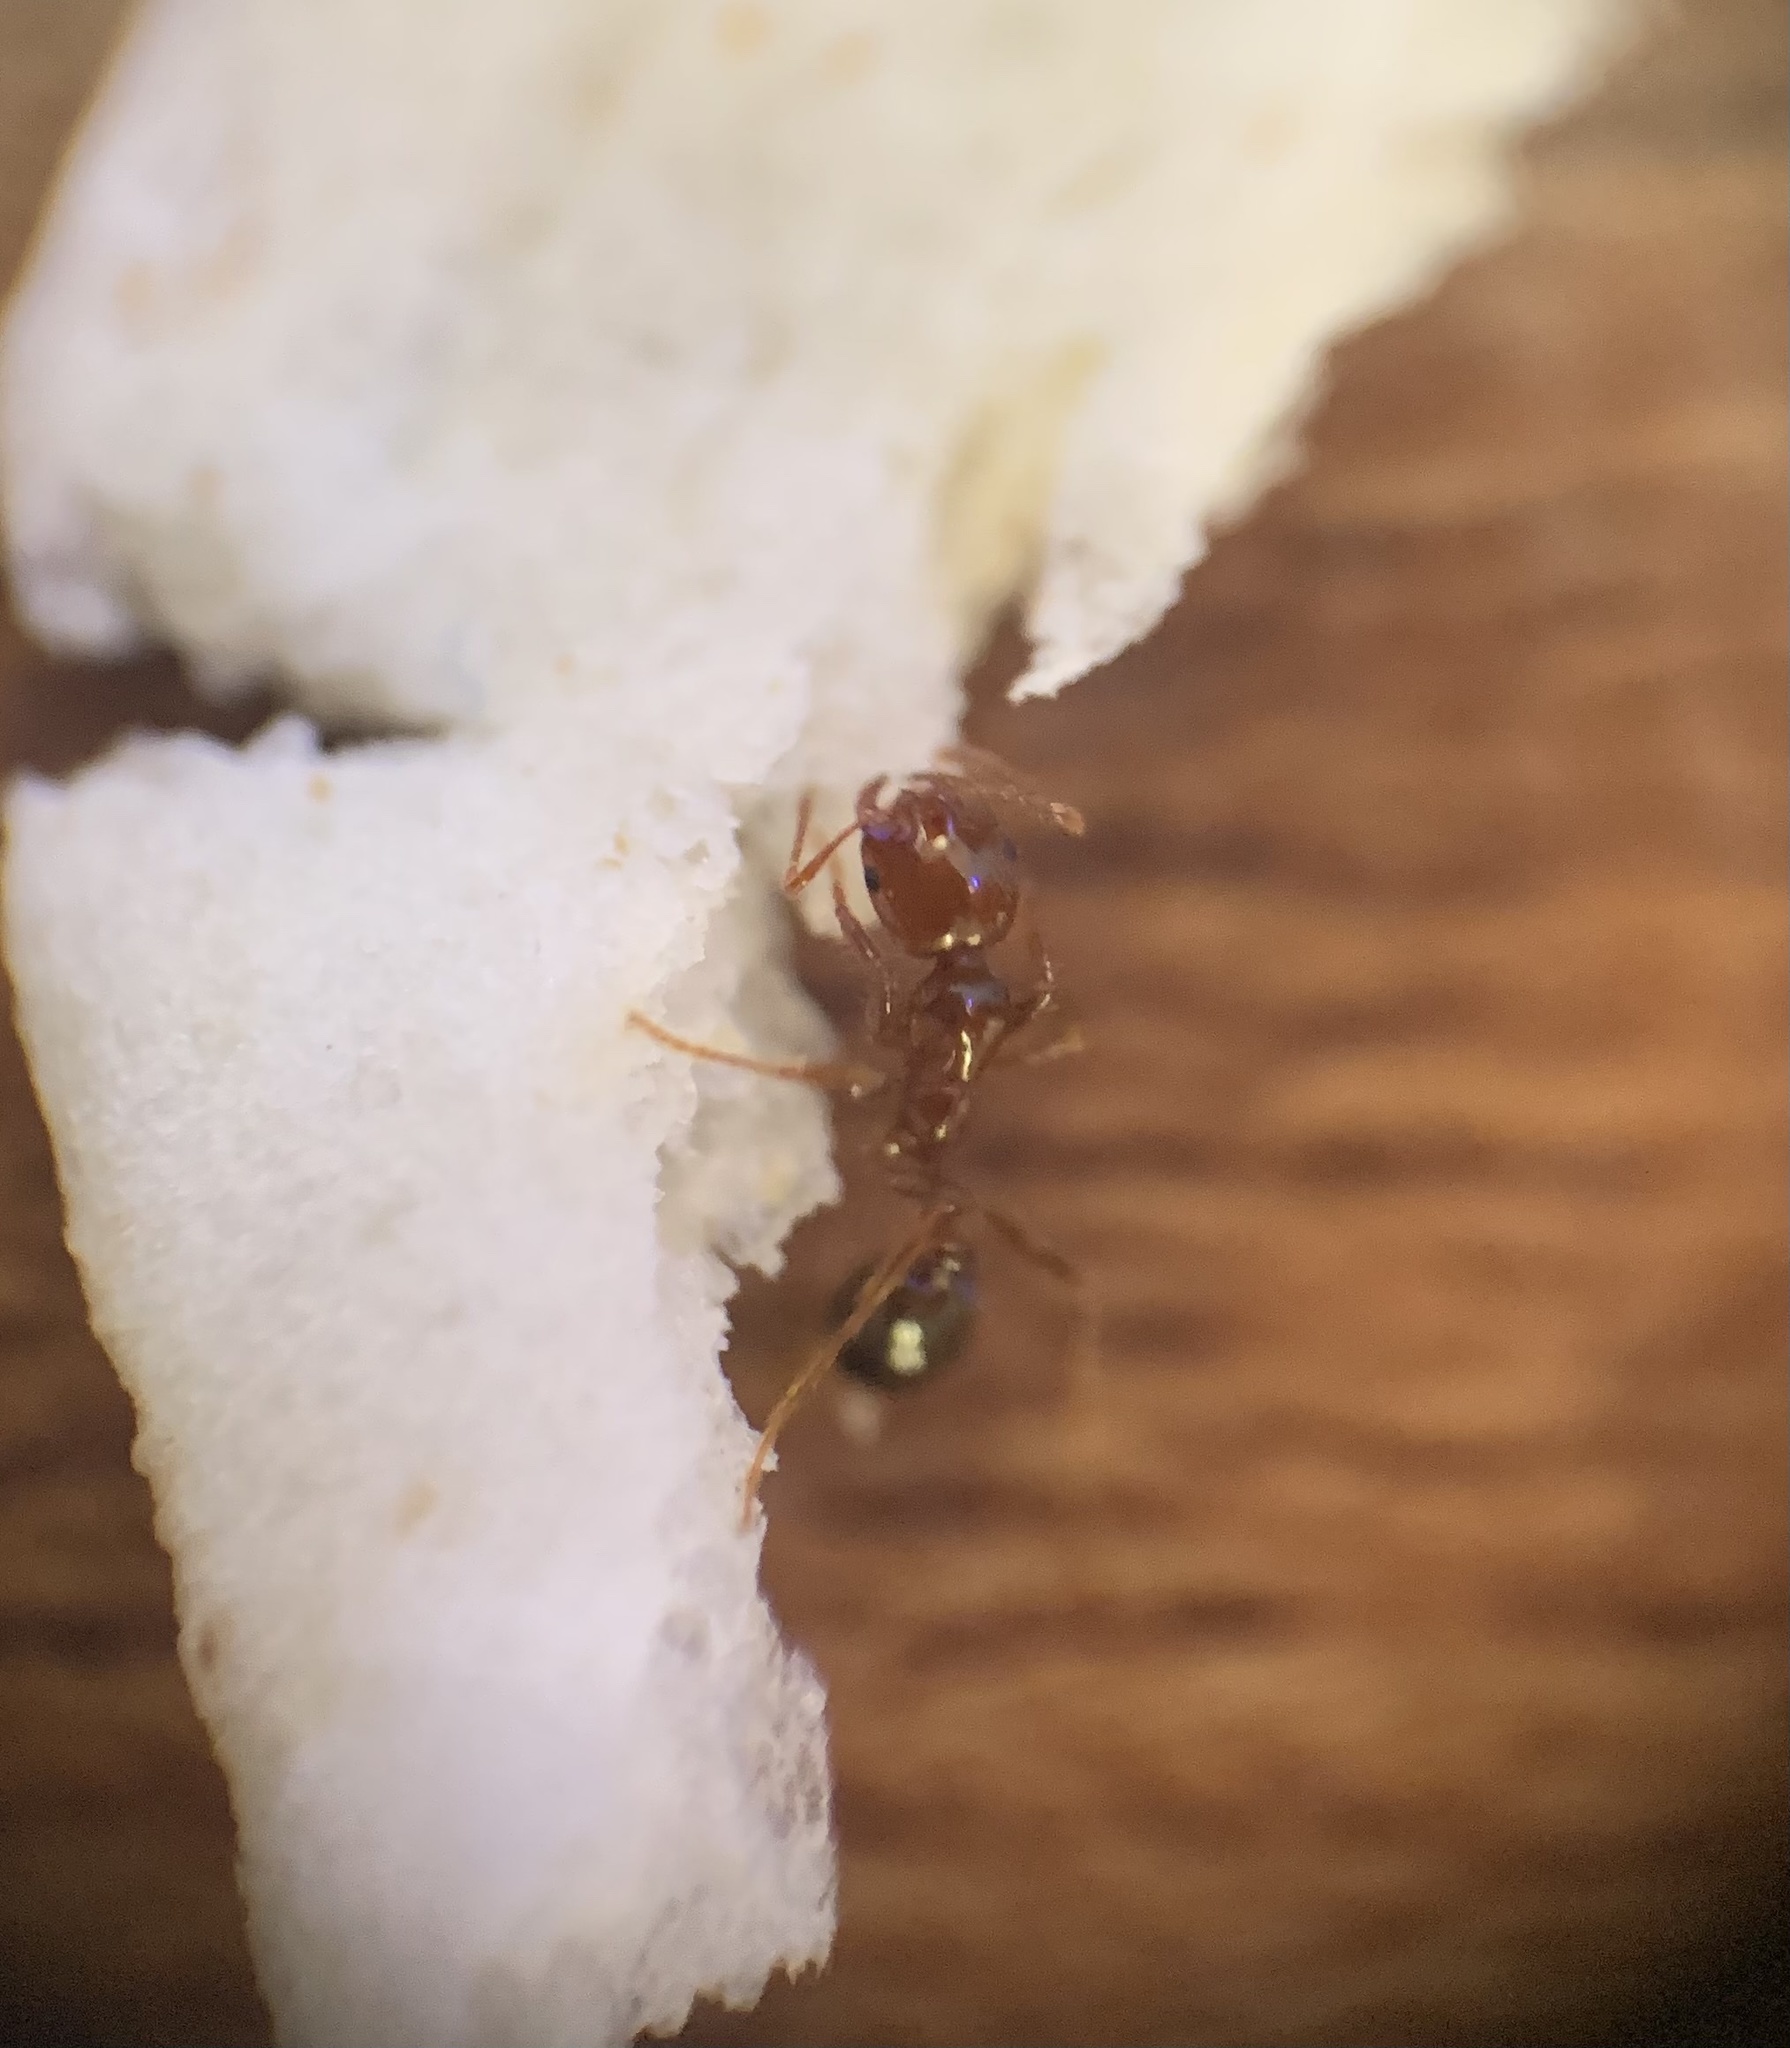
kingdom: Animalia
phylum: Arthropoda
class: Insecta
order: Hymenoptera
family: Formicidae
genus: Solenopsis
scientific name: Solenopsis invicta
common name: Red imported fire ant
